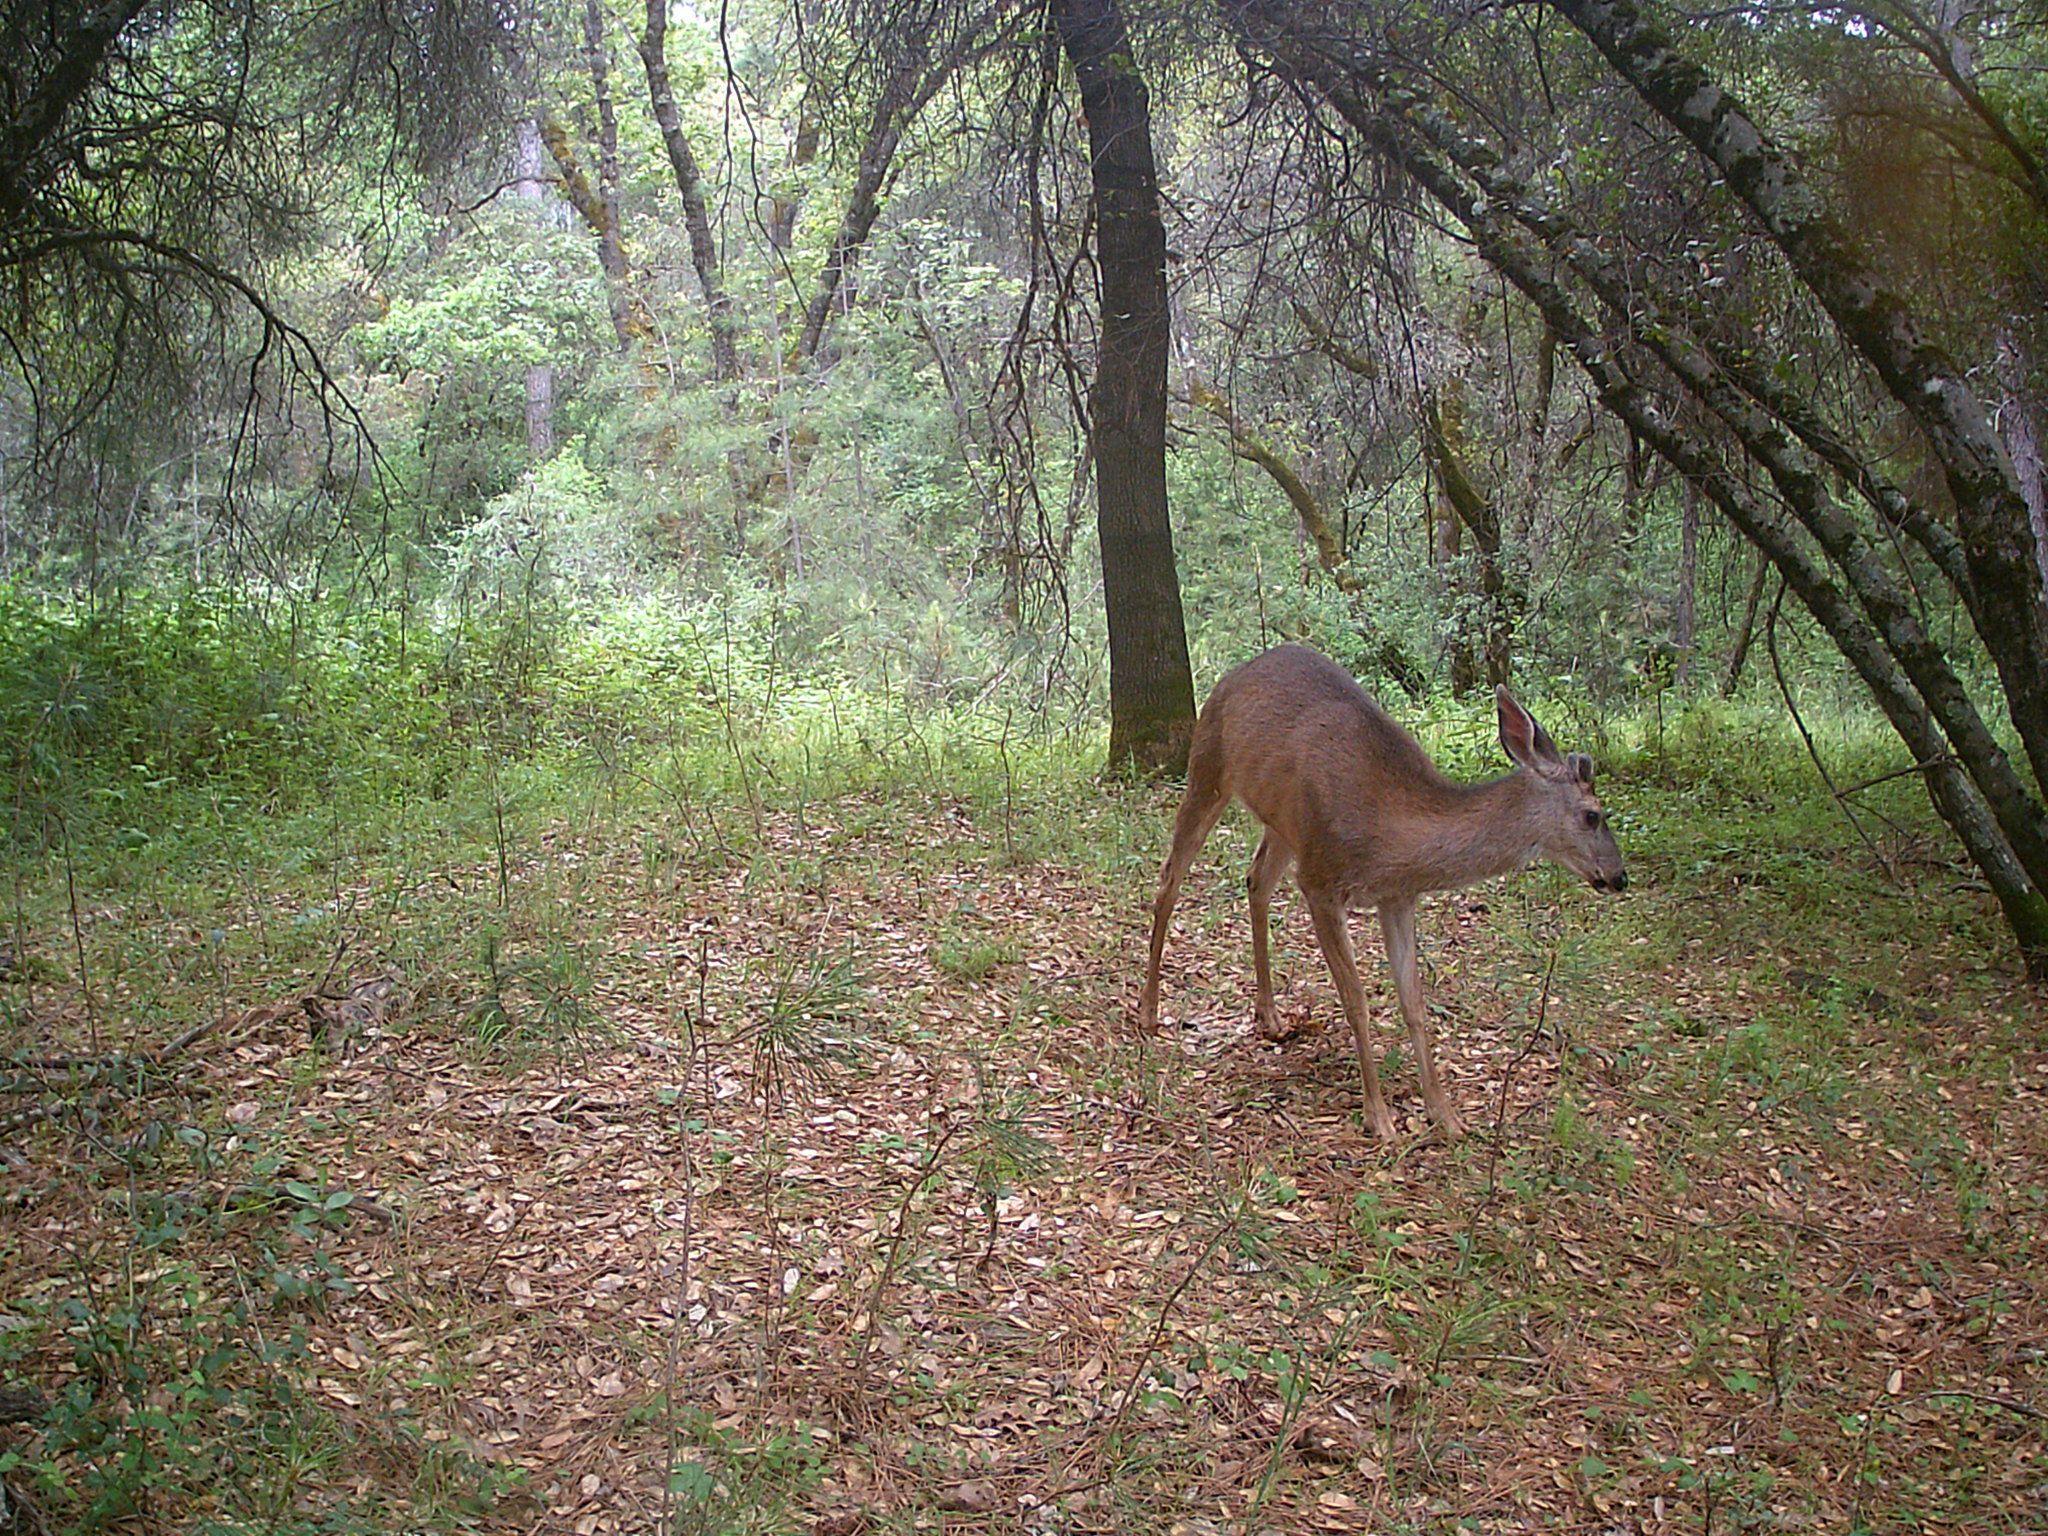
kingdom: Animalia
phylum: Chordata
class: Mammalia
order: Artiodactyla
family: Cervidae
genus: Odocoileus
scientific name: Odocoileus hemionus
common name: Mule deer
